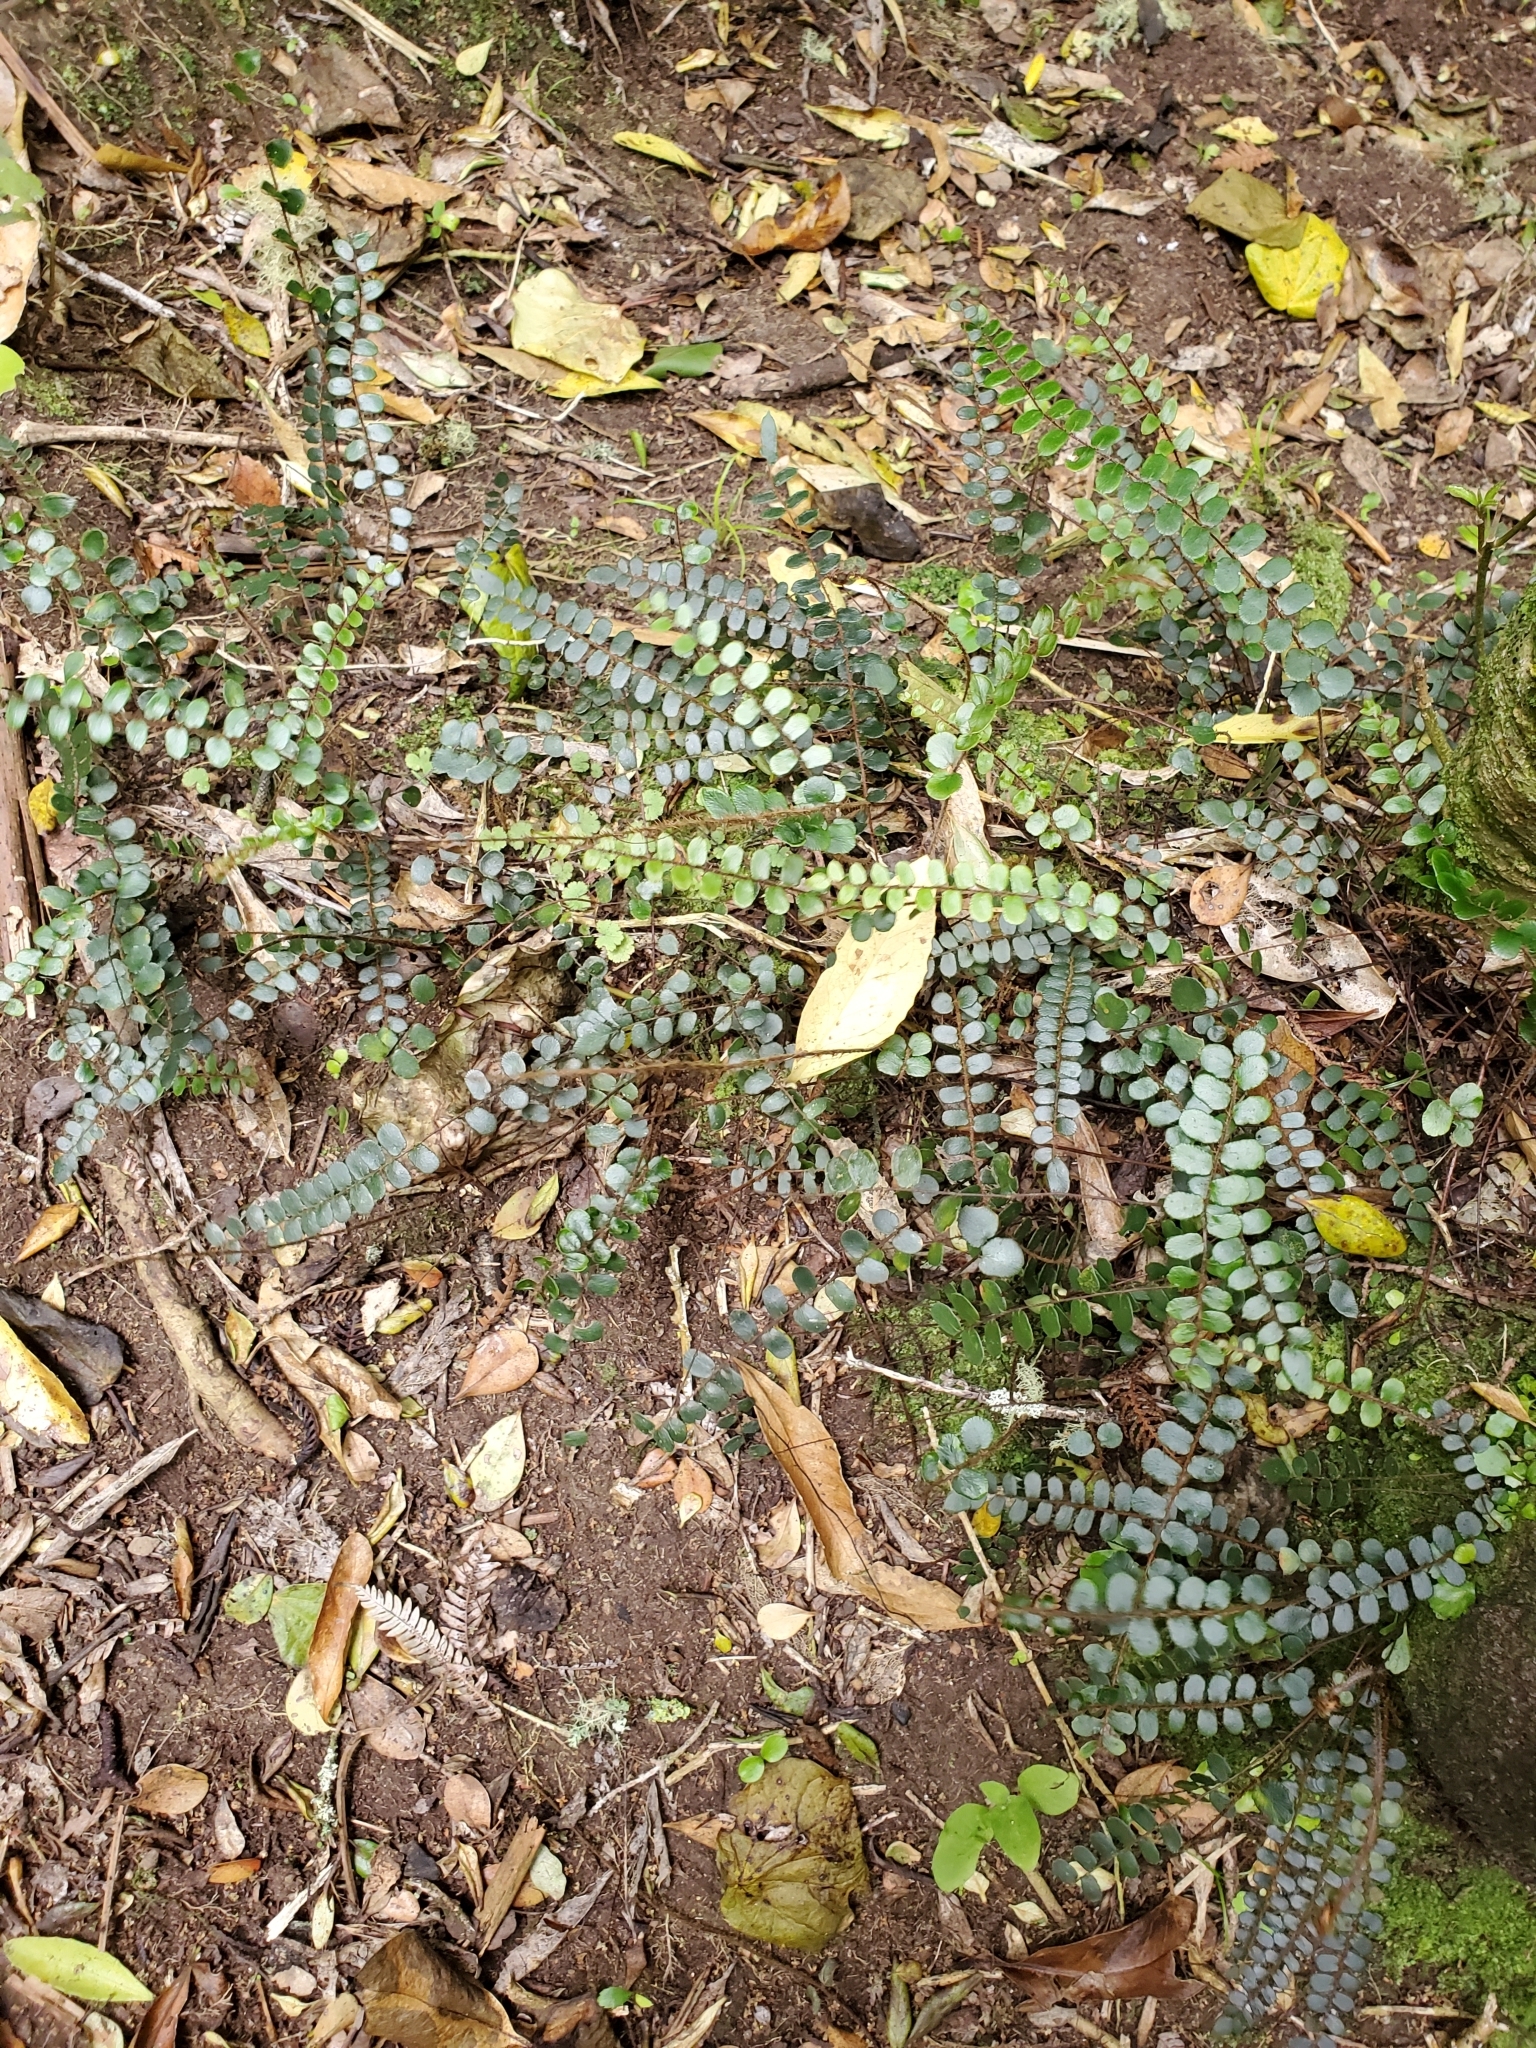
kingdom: Plantae
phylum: Tracheophyta
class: Polypodiopsida
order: Polypodiales
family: Pteridaceae
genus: Pellaea
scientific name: Pellaea rotundifolia
